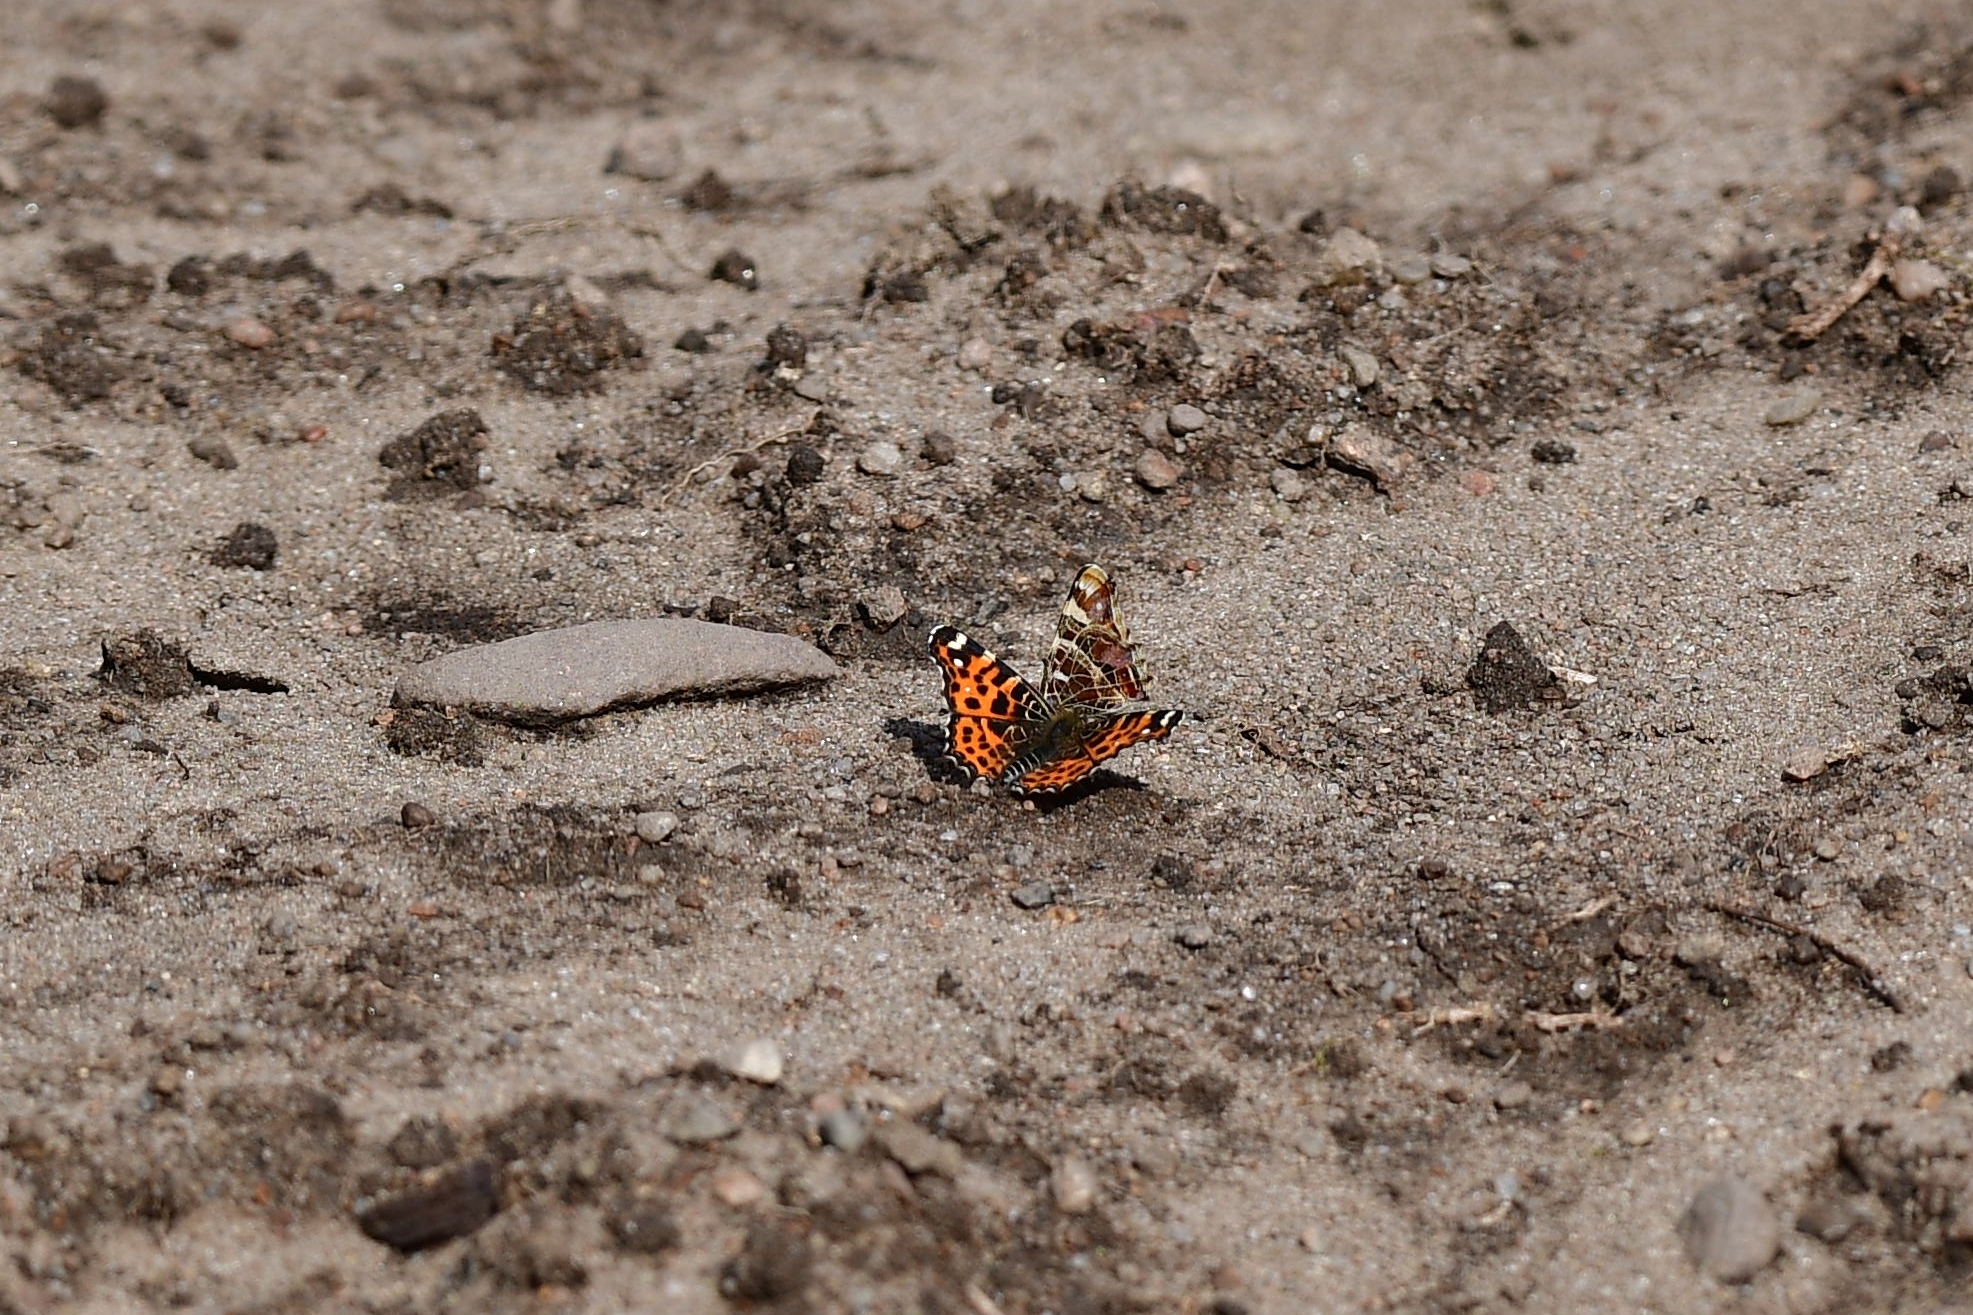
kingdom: Animalia
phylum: Arthropoda
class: Insecta
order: Lepidoptera
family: Nymphalidae
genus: Araschnia
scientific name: Araschnia levana
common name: Map butterfly
